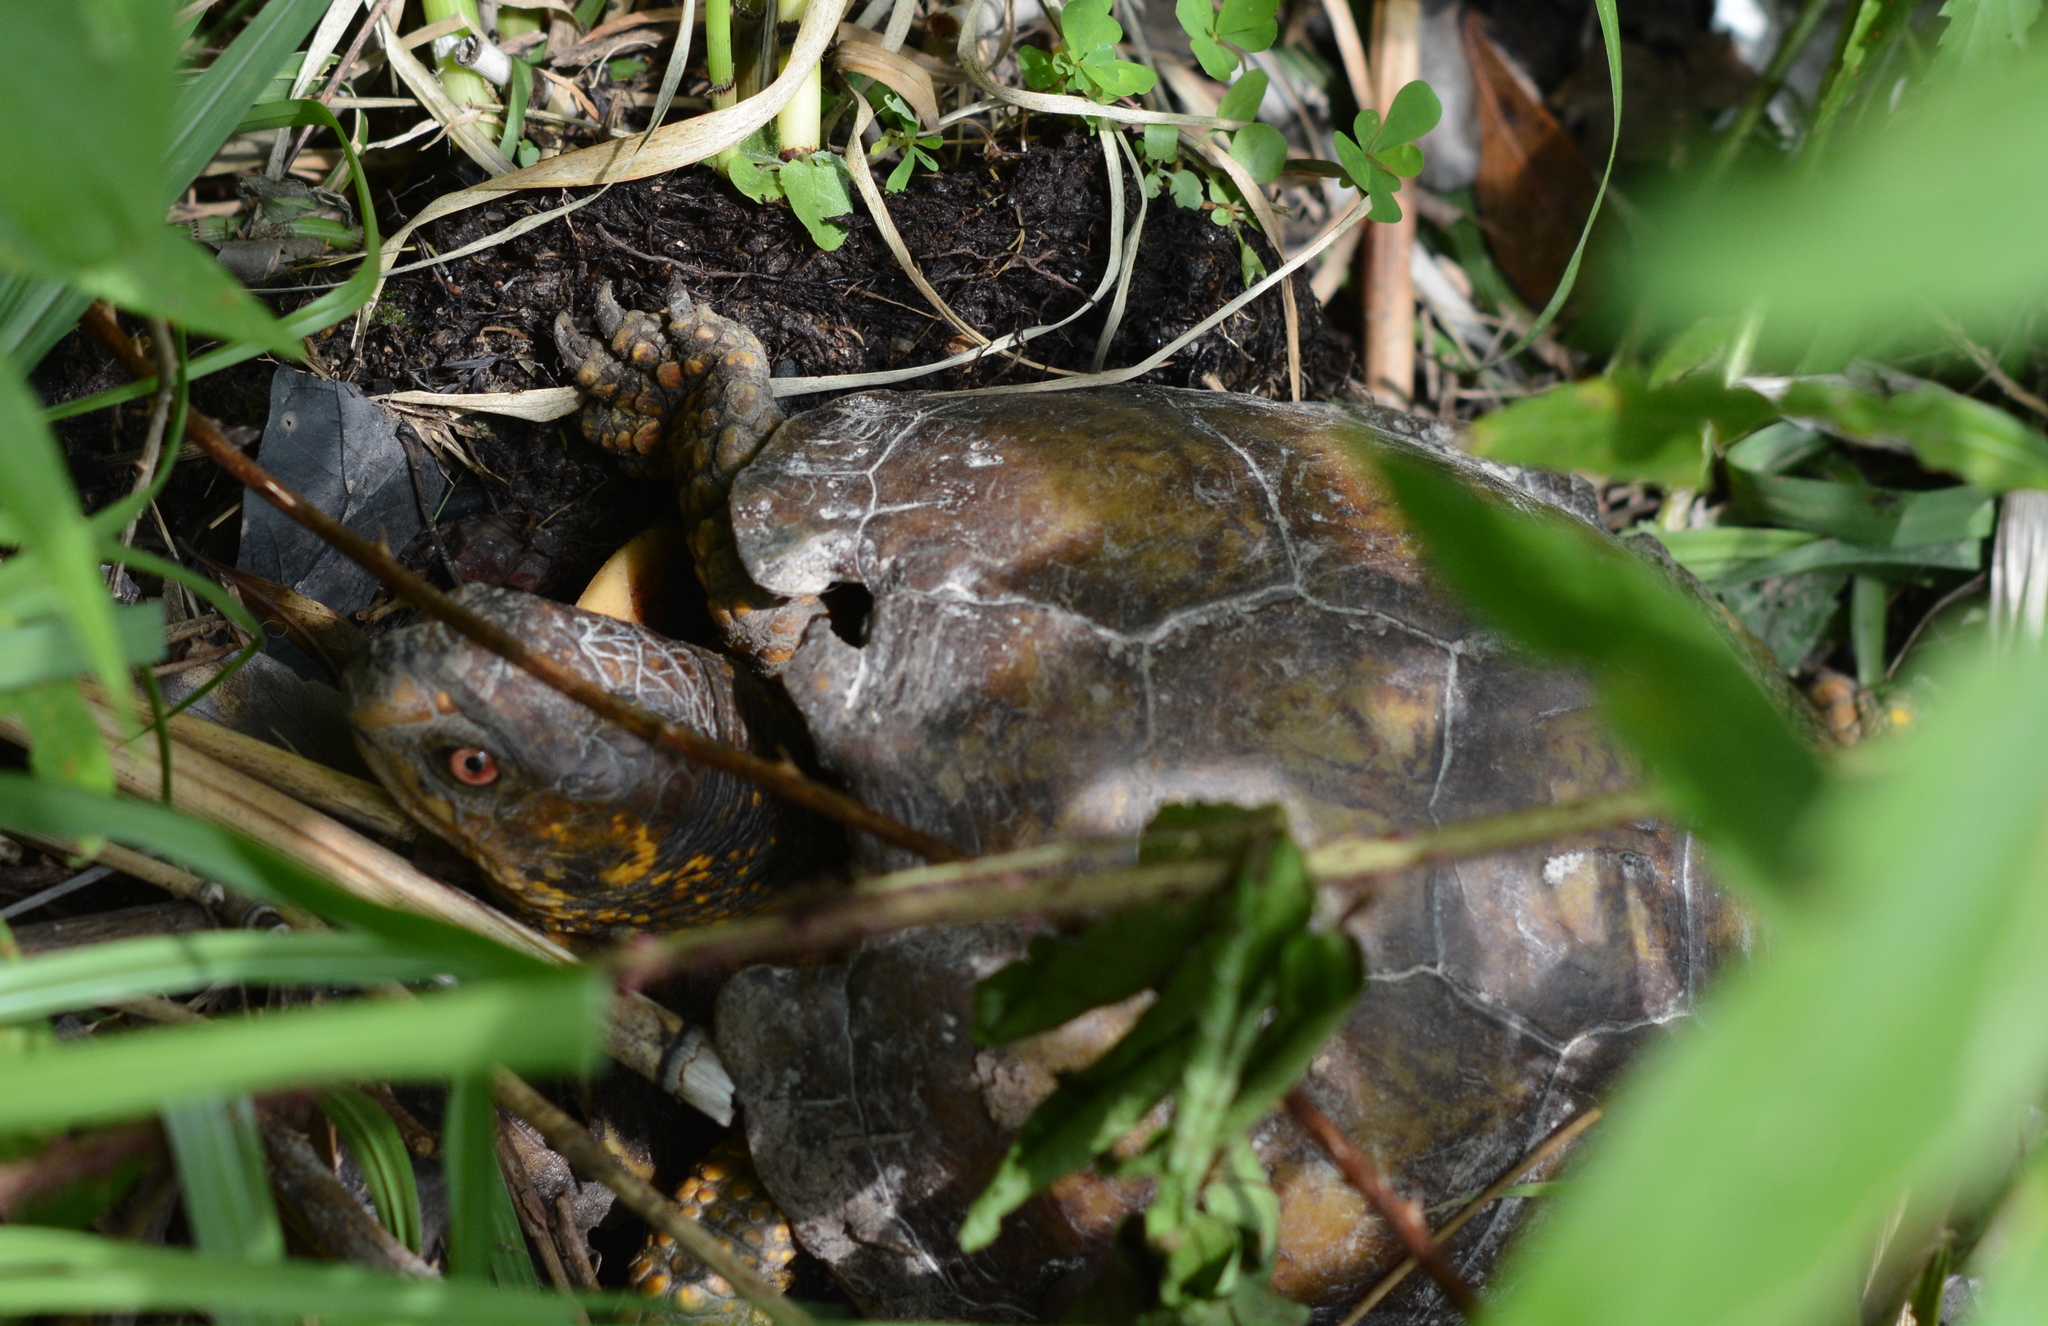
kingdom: Animalia
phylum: Chordata
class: Testudines
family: Emydidae
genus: Terrapene
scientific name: Terrapene carolina
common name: Common box turtle
